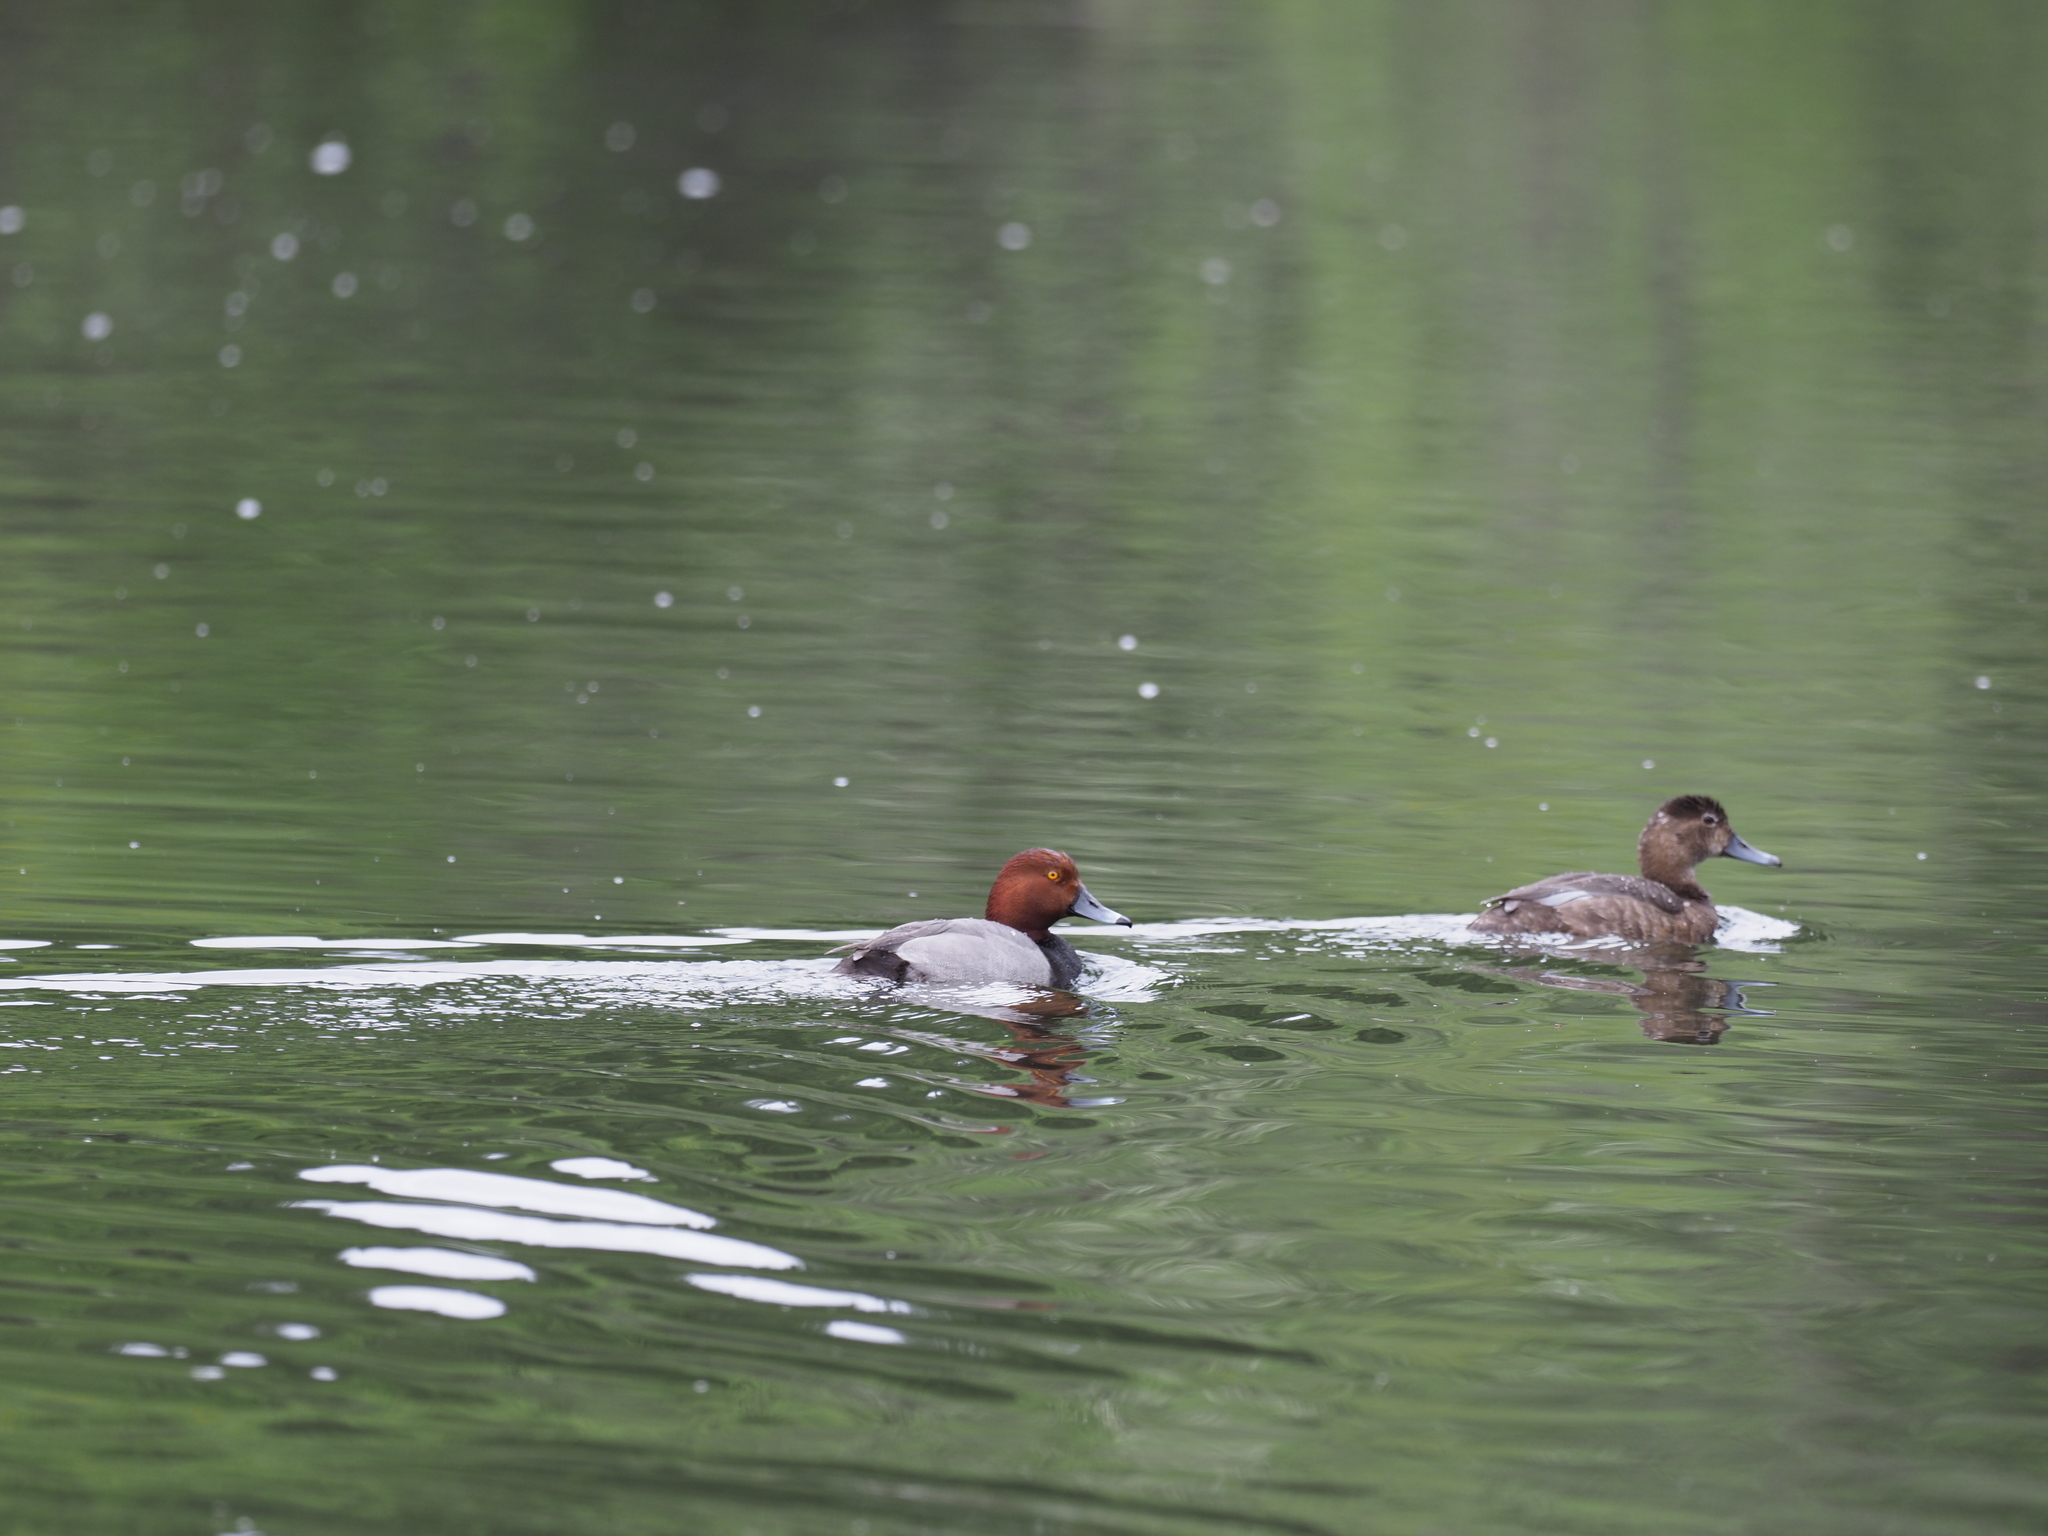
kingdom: Animalia
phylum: Chordata
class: Aves
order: Anseriformes
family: Anatidae
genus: Aythya
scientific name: Aythya americana
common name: Redhead
